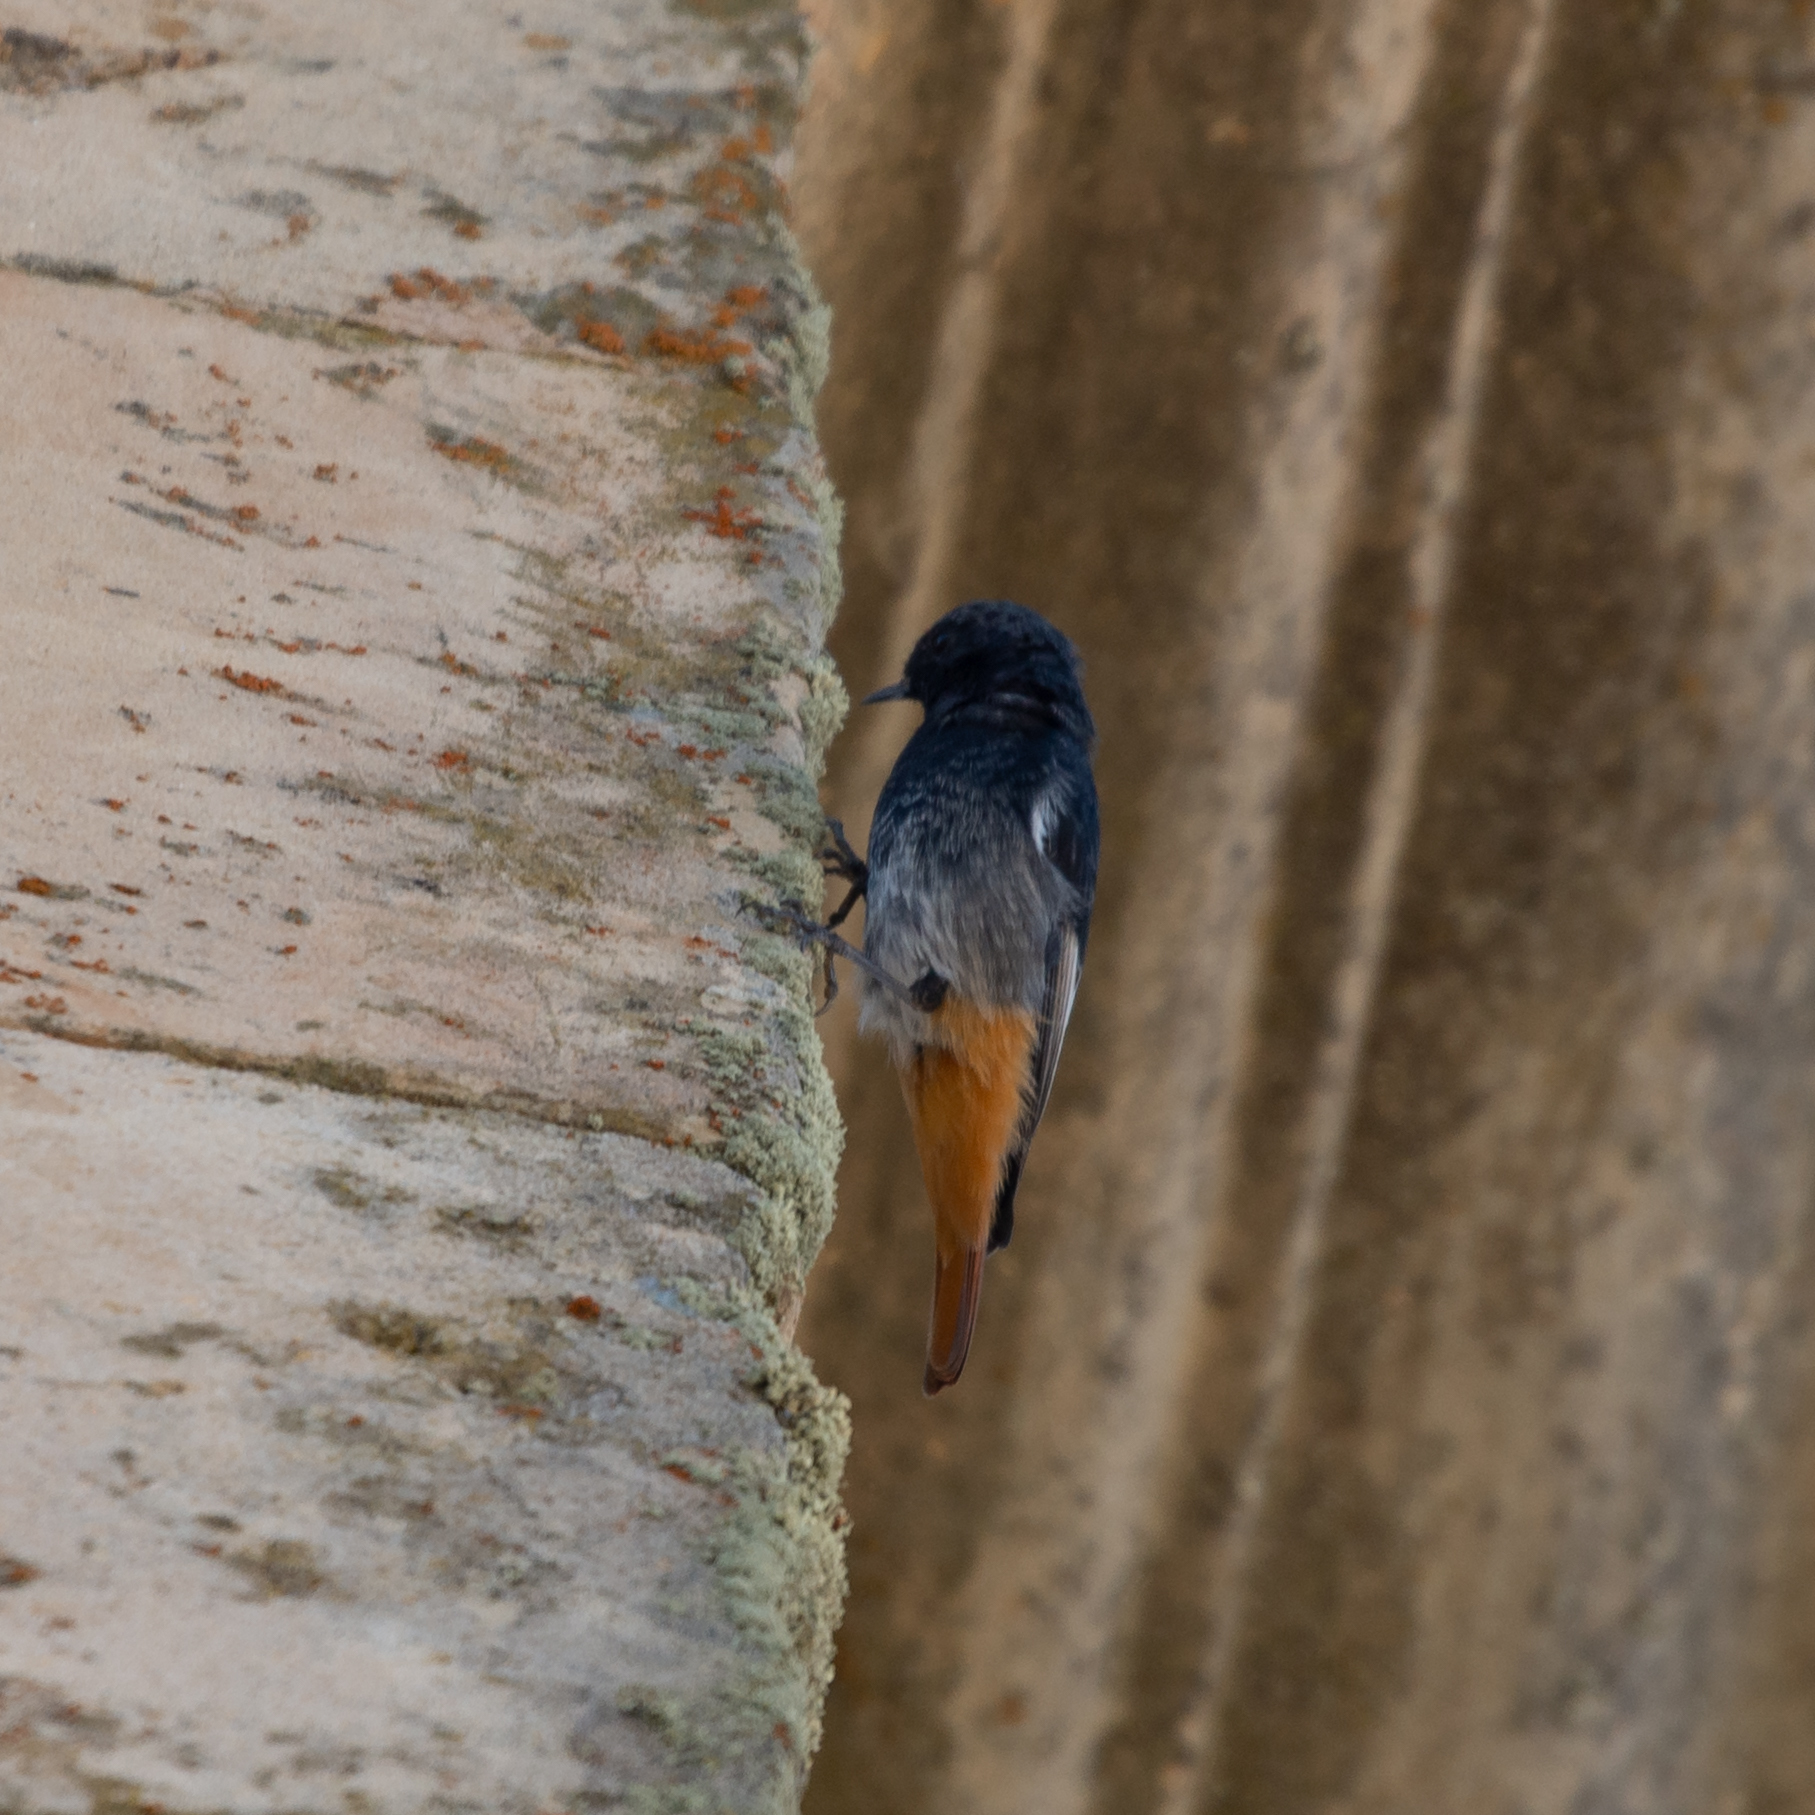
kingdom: Animalia
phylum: Chordata
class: Aves
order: Passeriformes
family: Muscicapidae
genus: Phoenicurus
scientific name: Phoenicurus ochruros
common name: Black redstart
